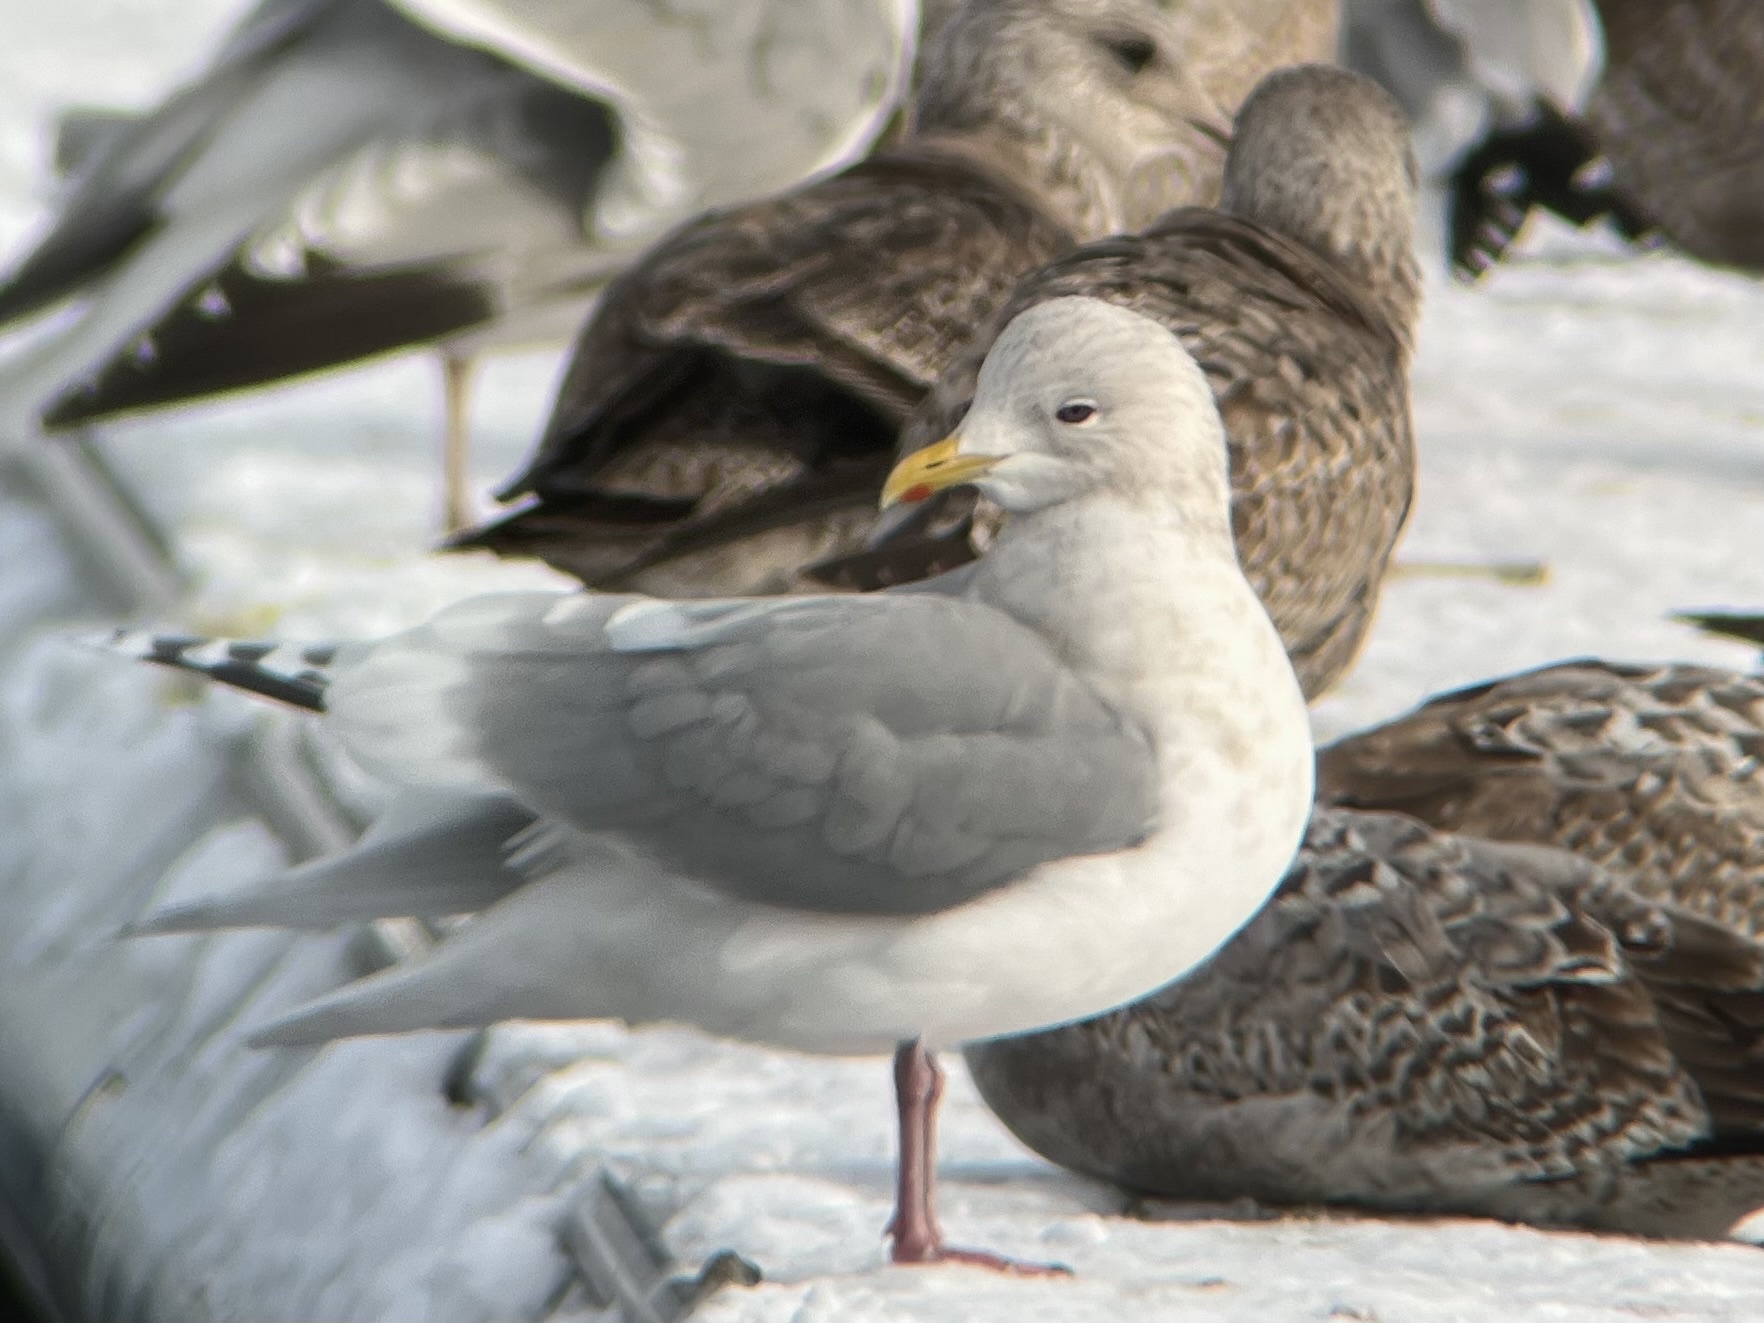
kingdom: Animalia
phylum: Chordata
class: Aves
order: Charadriiformes
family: Laridae
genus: Larus
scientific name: Larus glaucoides
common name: Iceland gull
